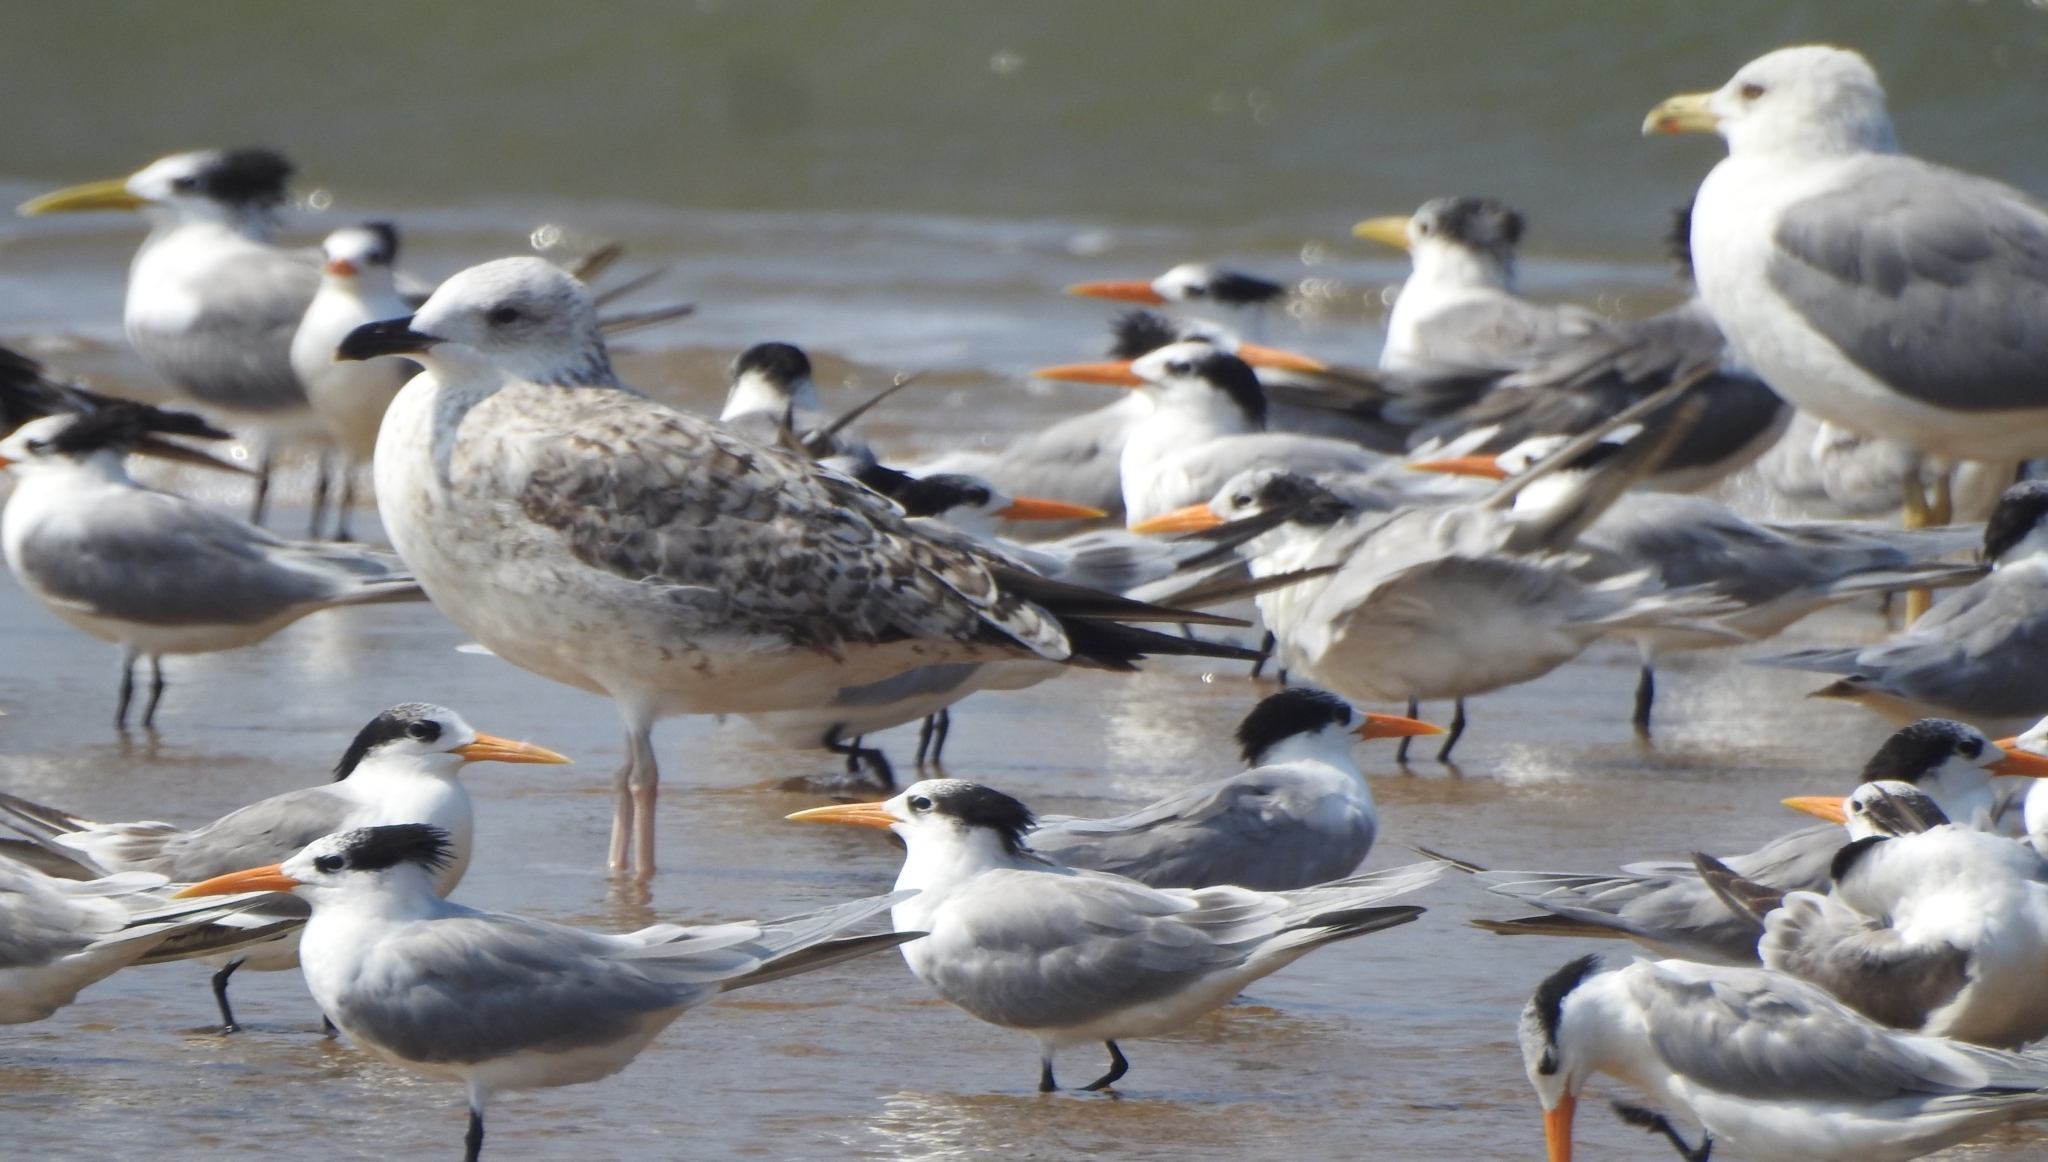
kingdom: Animalia
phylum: Chordata
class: Aves
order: Charadriiformes
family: Laridae
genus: Thalasseus
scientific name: Thalasseus bengalensis
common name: Lesser crested tern
